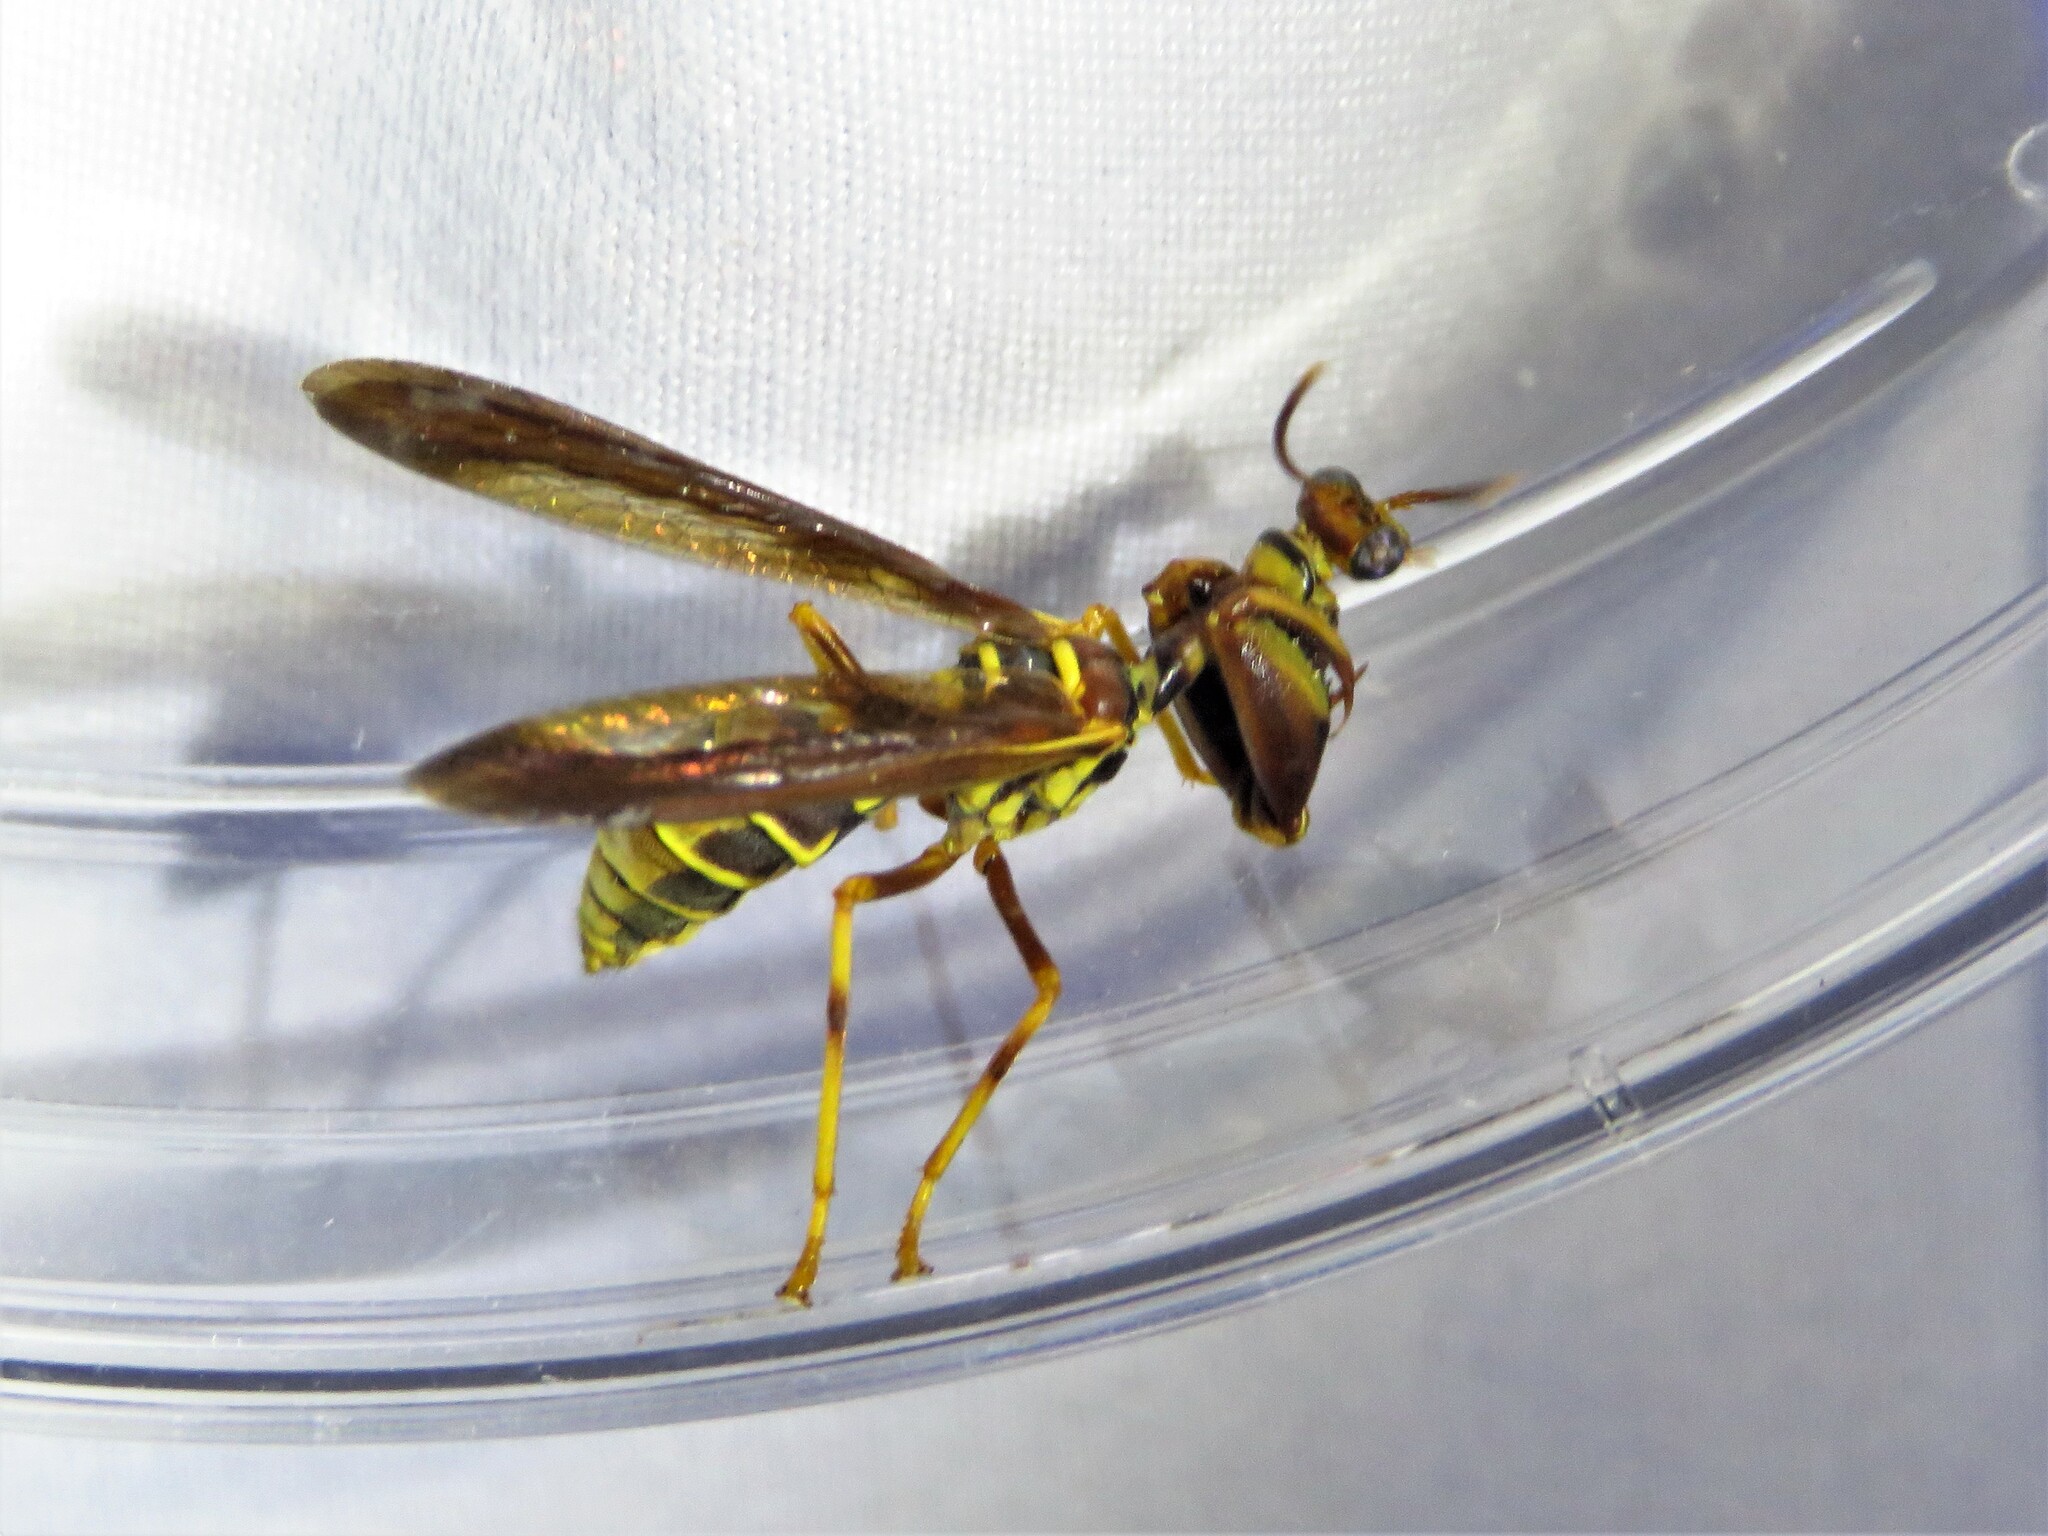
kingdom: Animalia
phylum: Arthropoda
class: Insecta
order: Neuroptera
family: Mantispidae
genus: Climaciella
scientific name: Climaciella brunnea
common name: Brown wasp mantidfly
